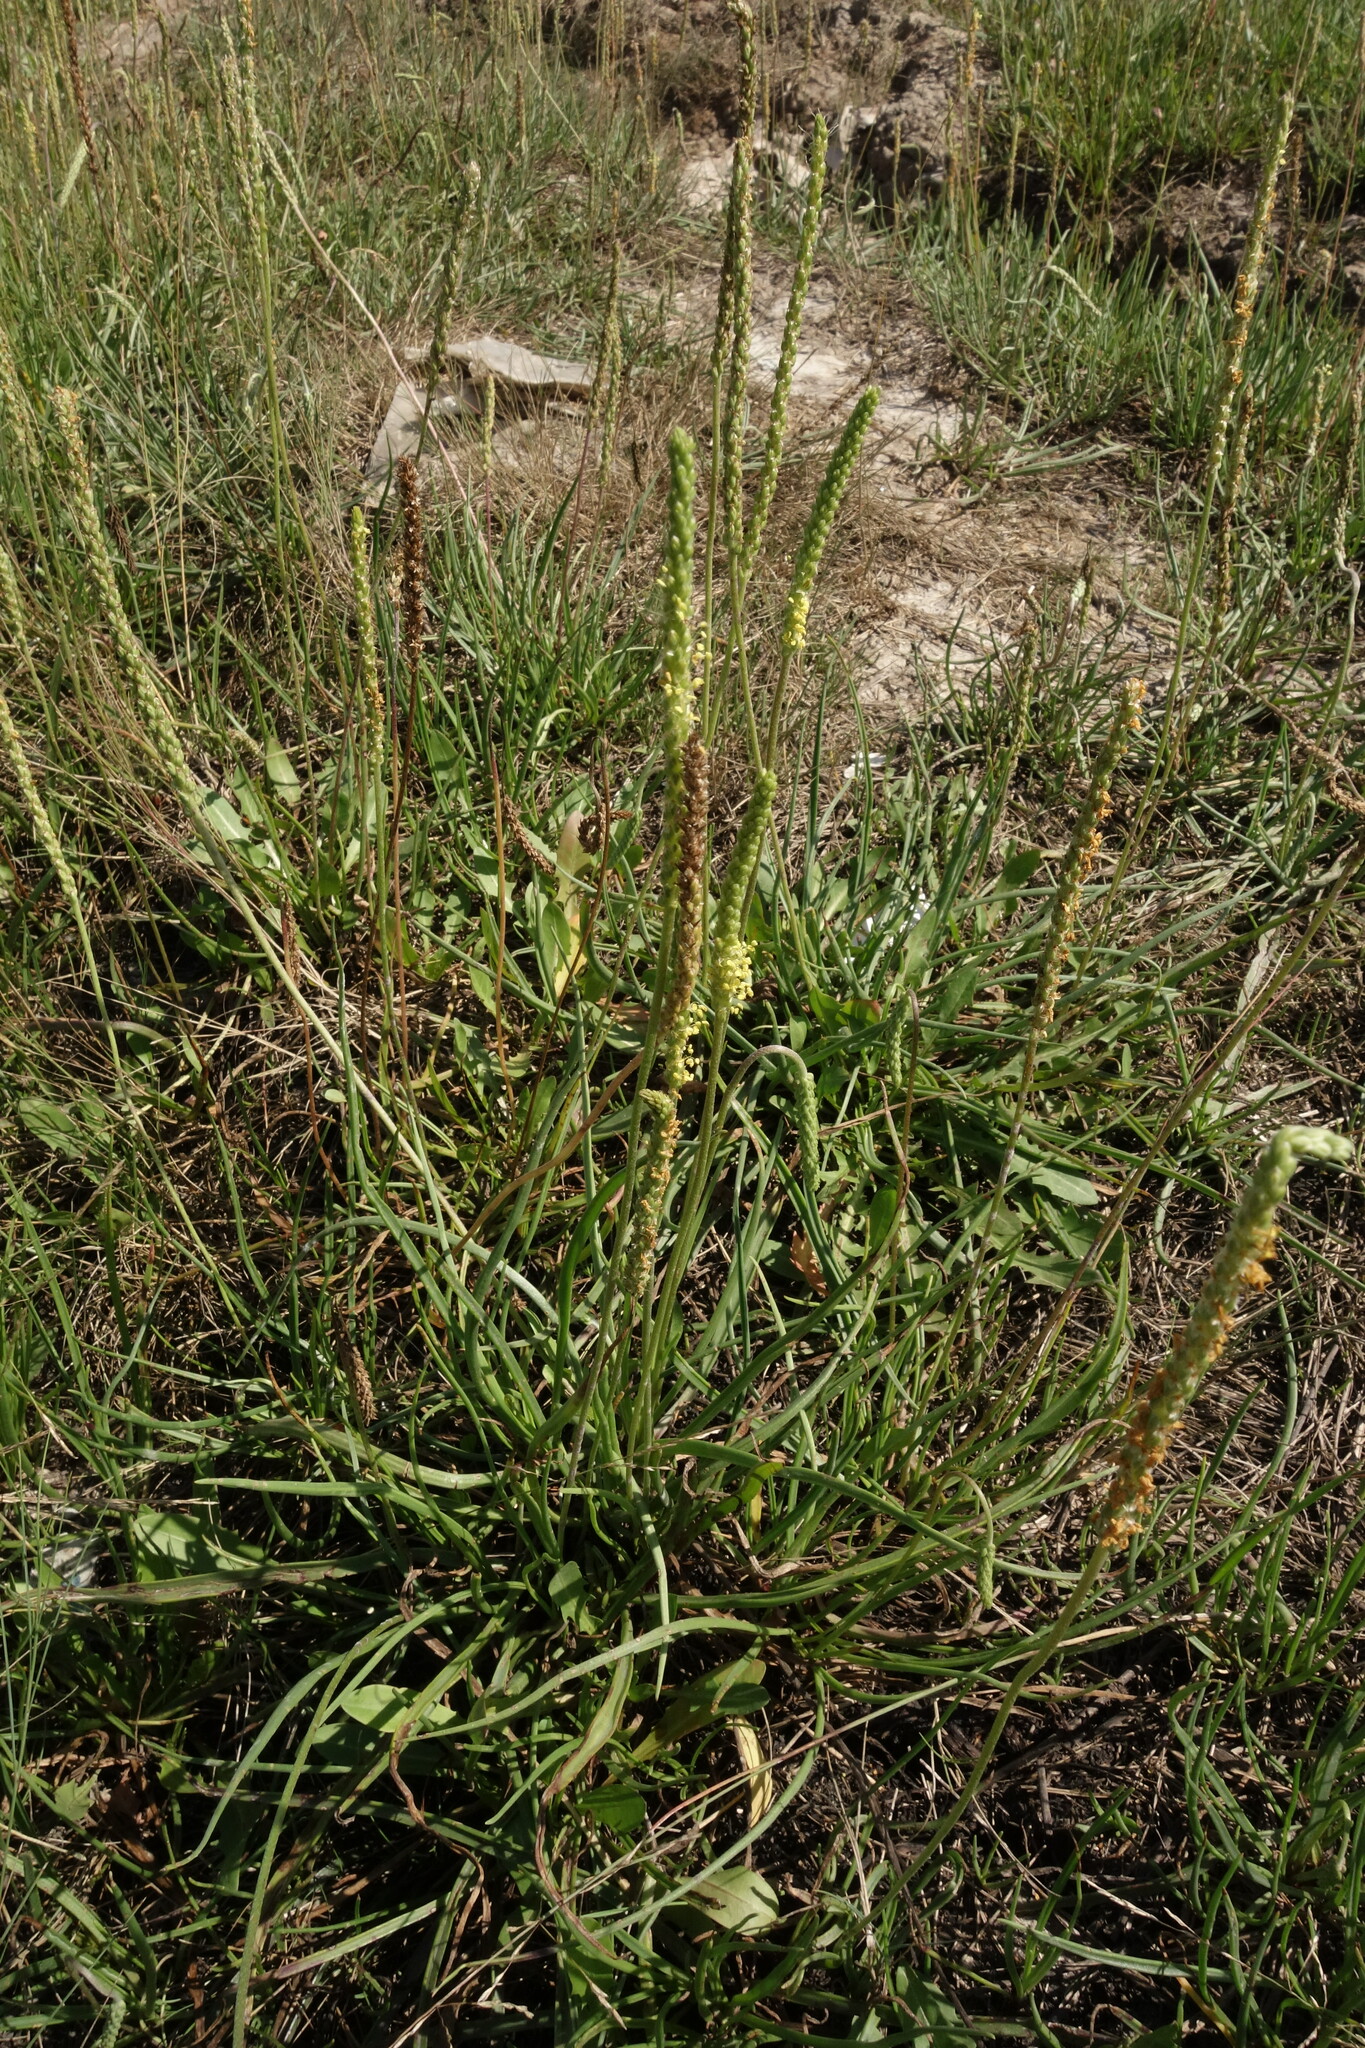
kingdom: Plantae
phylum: Tracheophyta
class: Magnoliopsida
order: Lamiales
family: Plantaginaceae
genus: Plantago
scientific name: Plantago salsa
